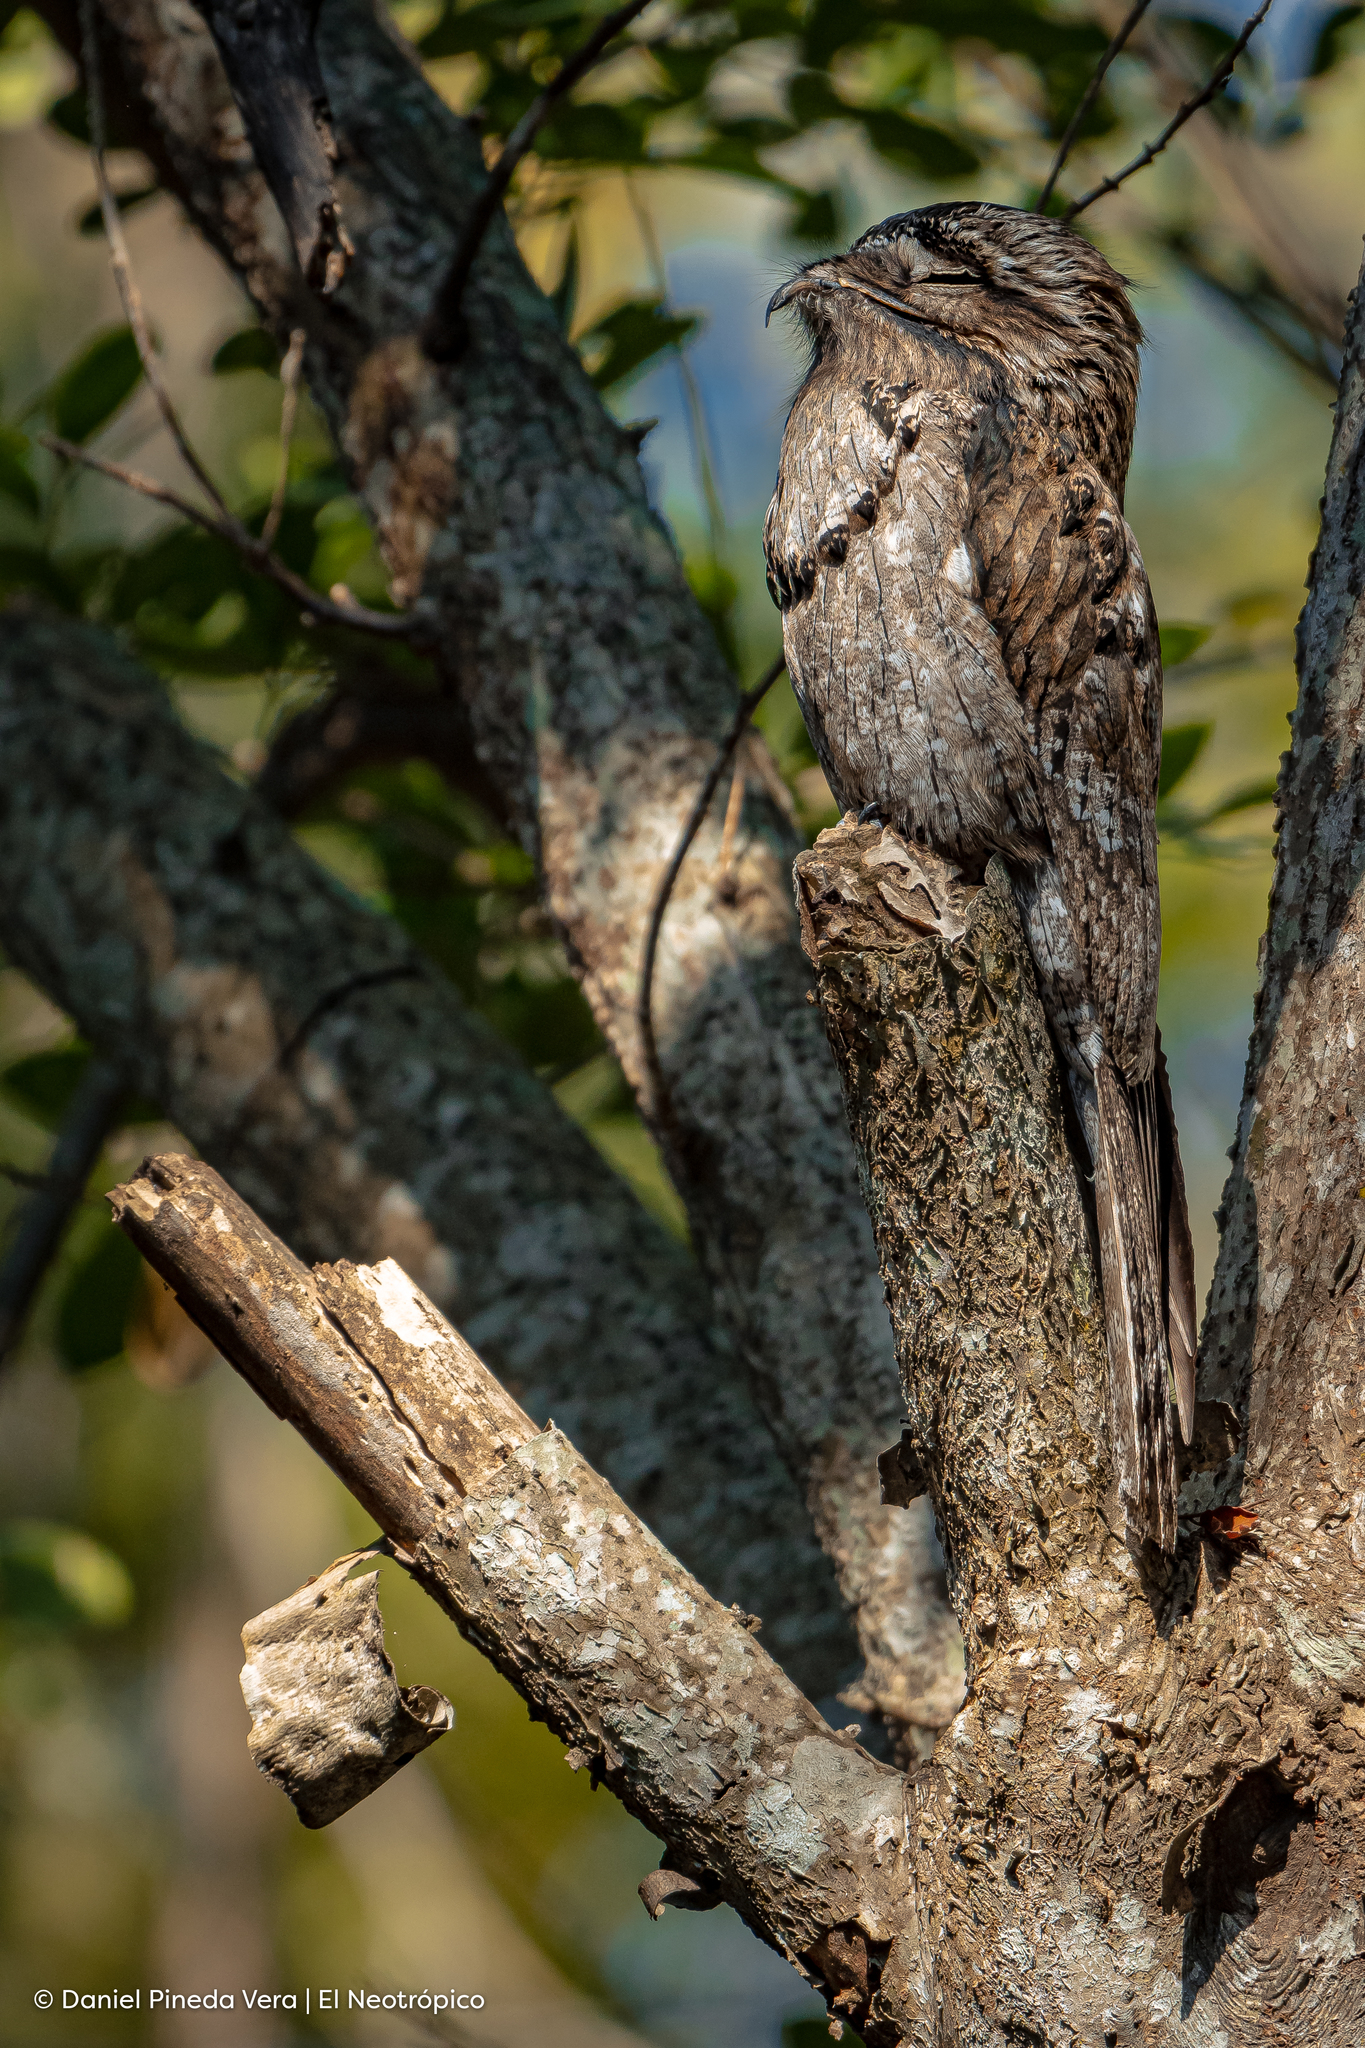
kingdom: Animalia
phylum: Chordata
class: Aves
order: Nyctibiiformes
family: Nyctibiidae
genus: Nyctibius
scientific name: Nyctibius jamaicensis
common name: Northern potoo
